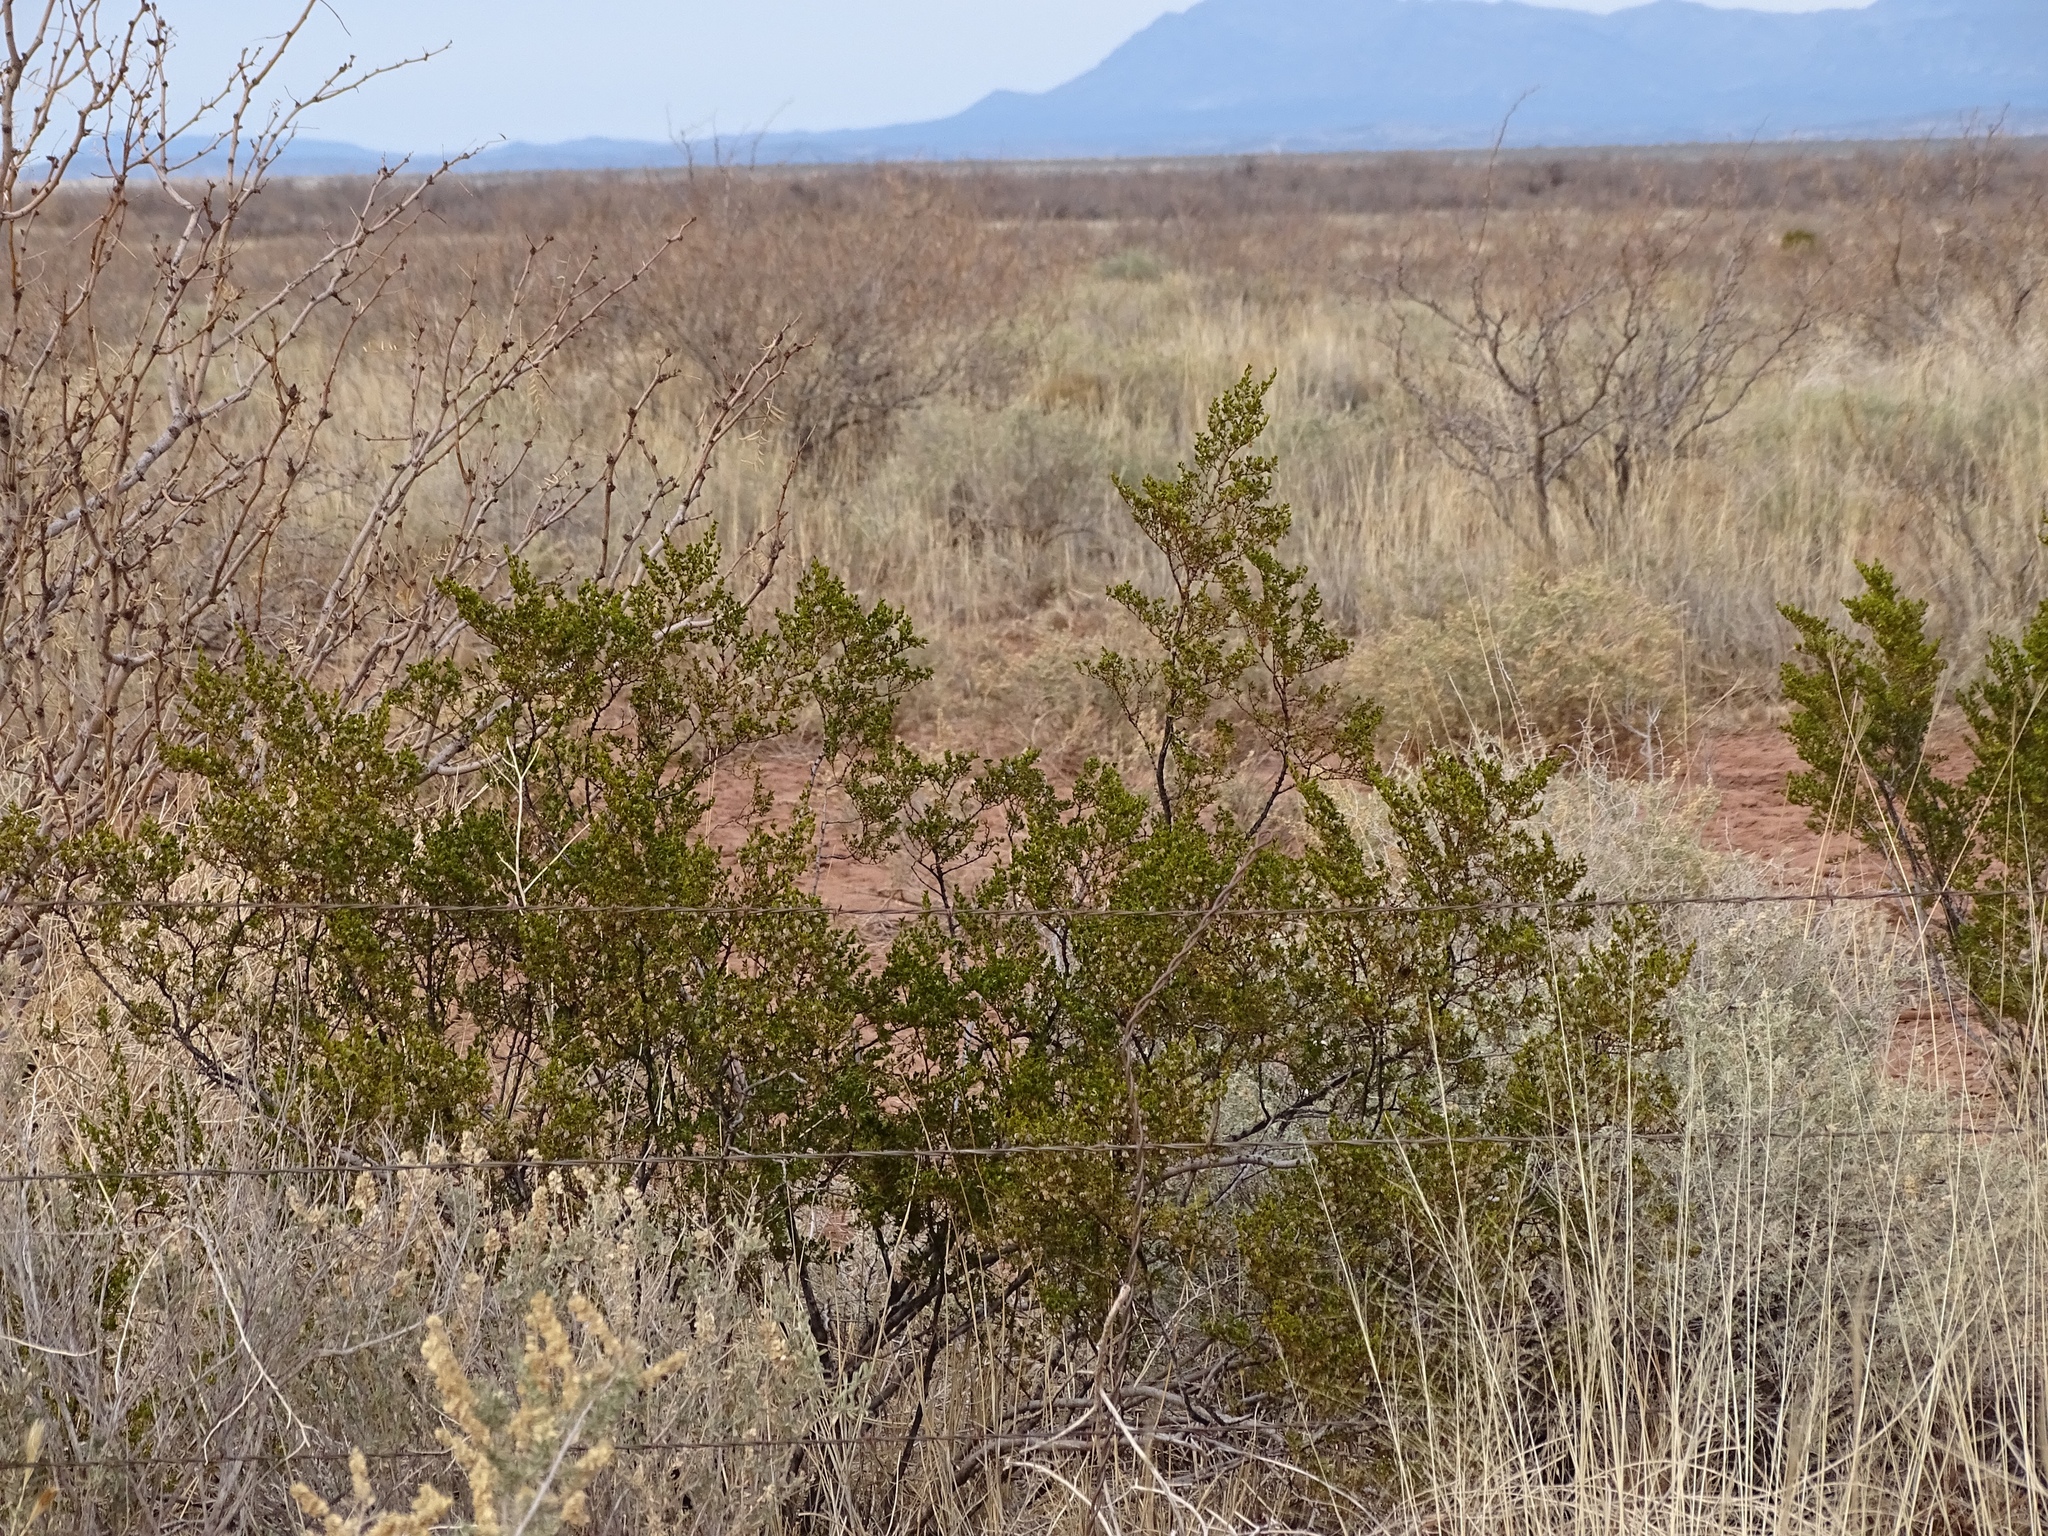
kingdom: Plantae
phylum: Tracheophyta
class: Magnoliopsida
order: Zygophyllales
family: Zygophyllaceae
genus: Larrea
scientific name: Larrea tridentata
